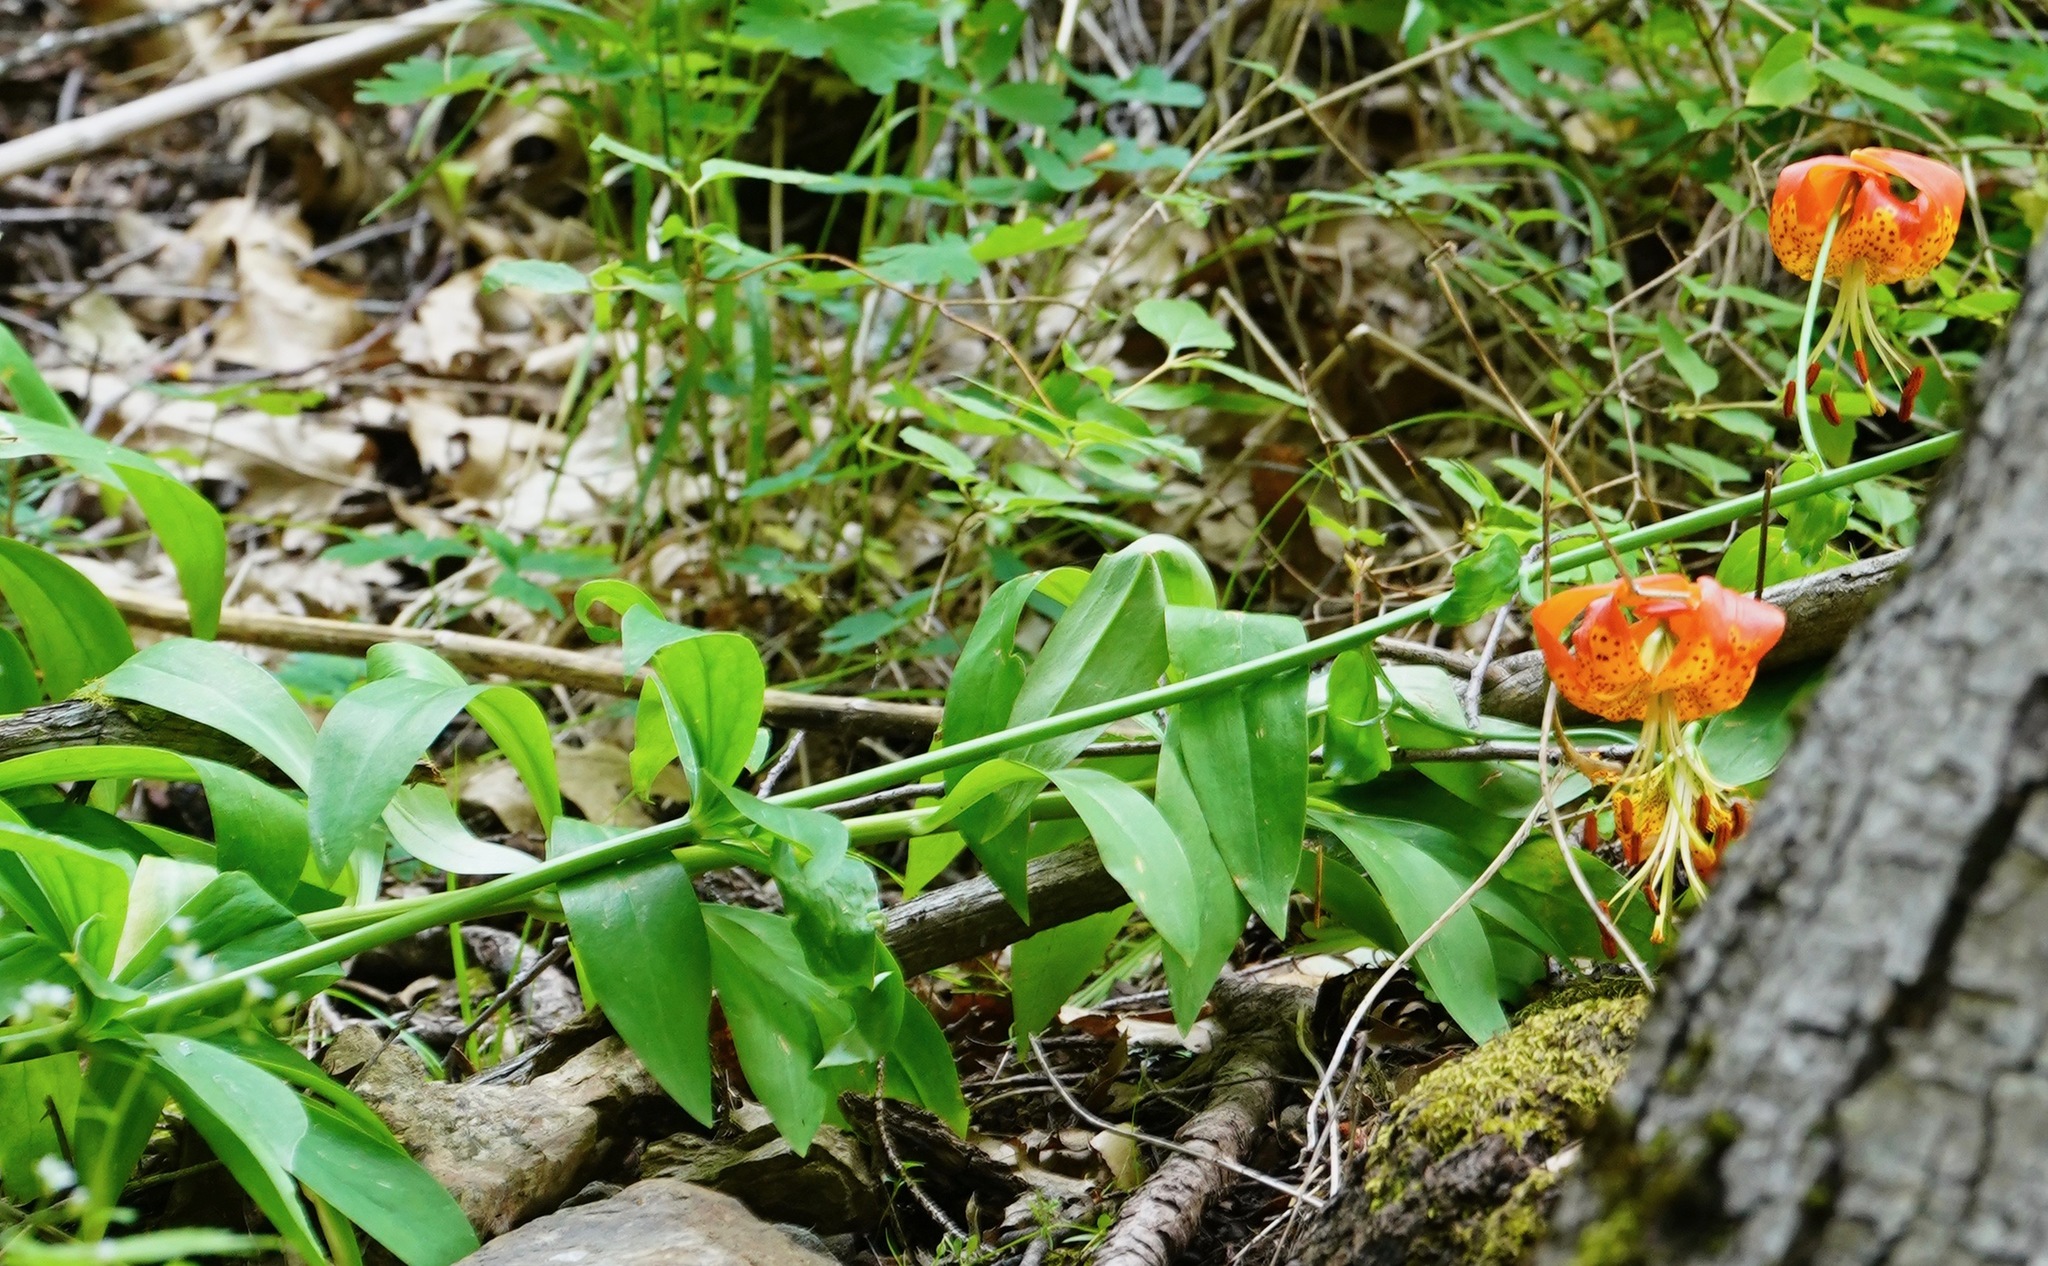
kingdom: Plantae
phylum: Tracheophyta
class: Liliopsida
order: Liliales
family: Liliaceae
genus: Lilium
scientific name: Lilium pardalinum
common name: Panther lily
